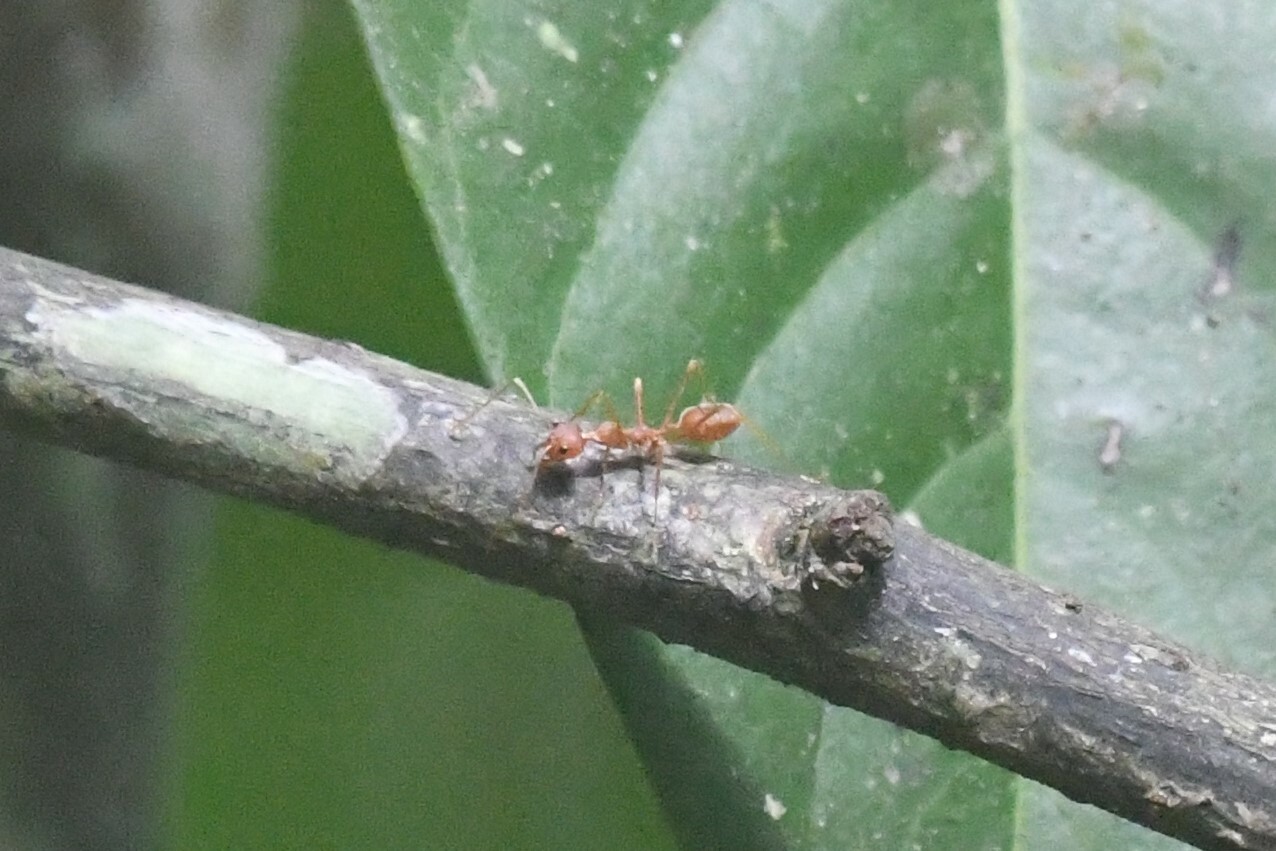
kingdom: Animalia
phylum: Arthropoda
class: Insecta
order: Hymenoptera
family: Formicidae
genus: Oecophylla
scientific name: Oecophylla smaragdina
